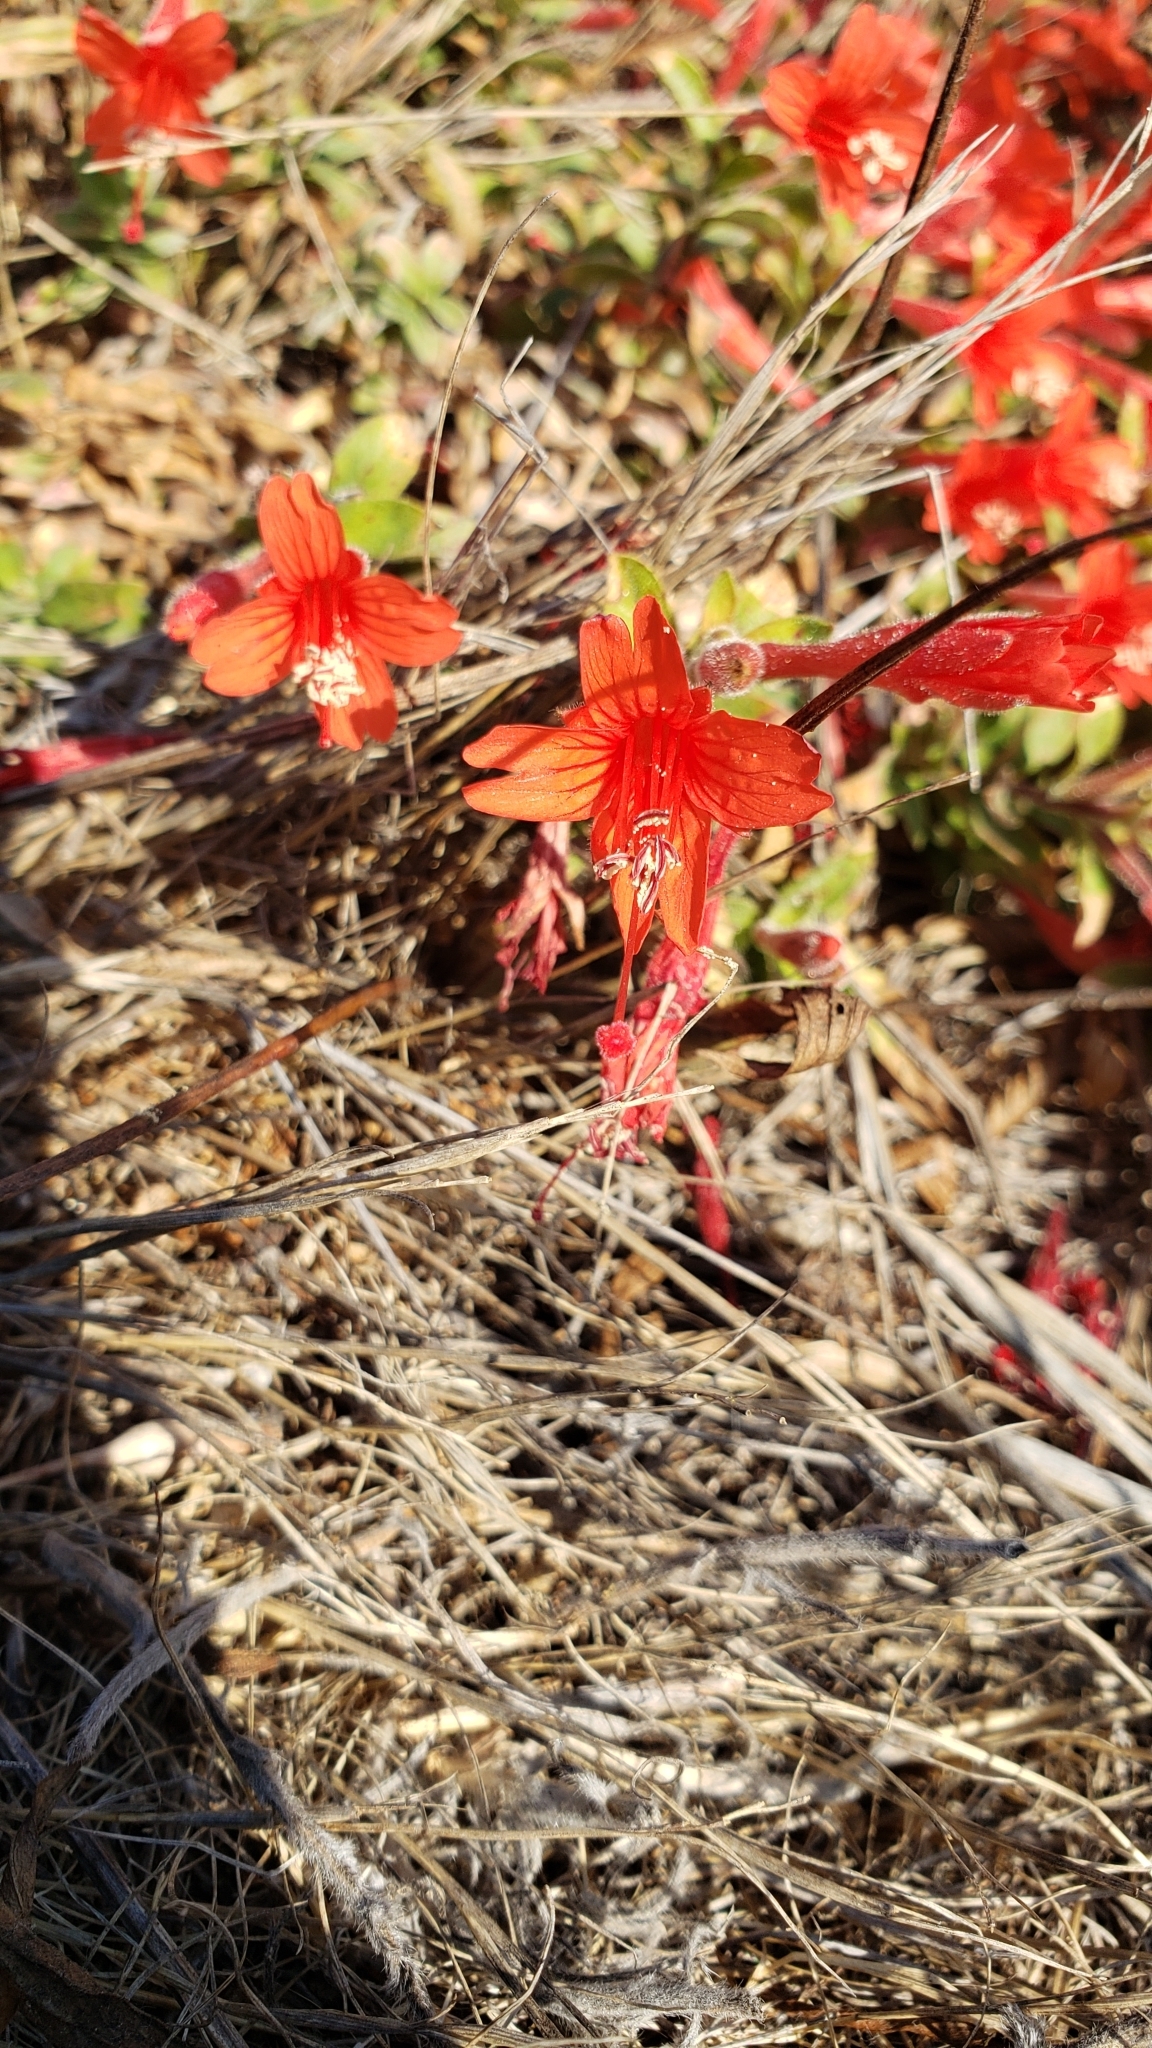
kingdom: Plantae
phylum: Tracheophyta
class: Magnoliopsida
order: Myrtales
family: Onagraceae
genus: Epilobium
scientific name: Epilobium septentrionale
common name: Humboldt county-fuchsia
